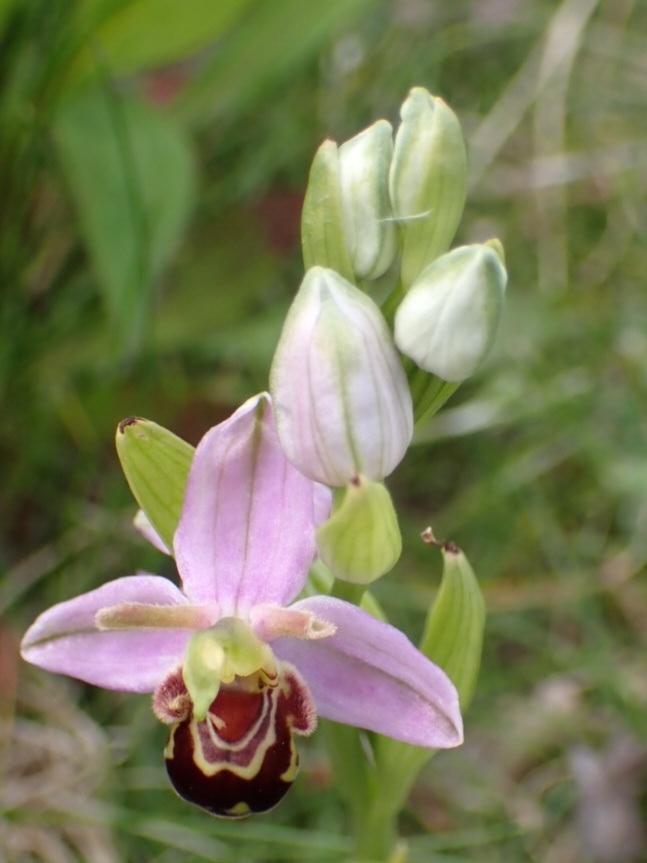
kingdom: Plantae
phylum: Tracheophyta
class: Liliopsida
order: Asparagales
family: Orchidaceae
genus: Ophrys
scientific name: Ophrys apifera
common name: Bee orchid
